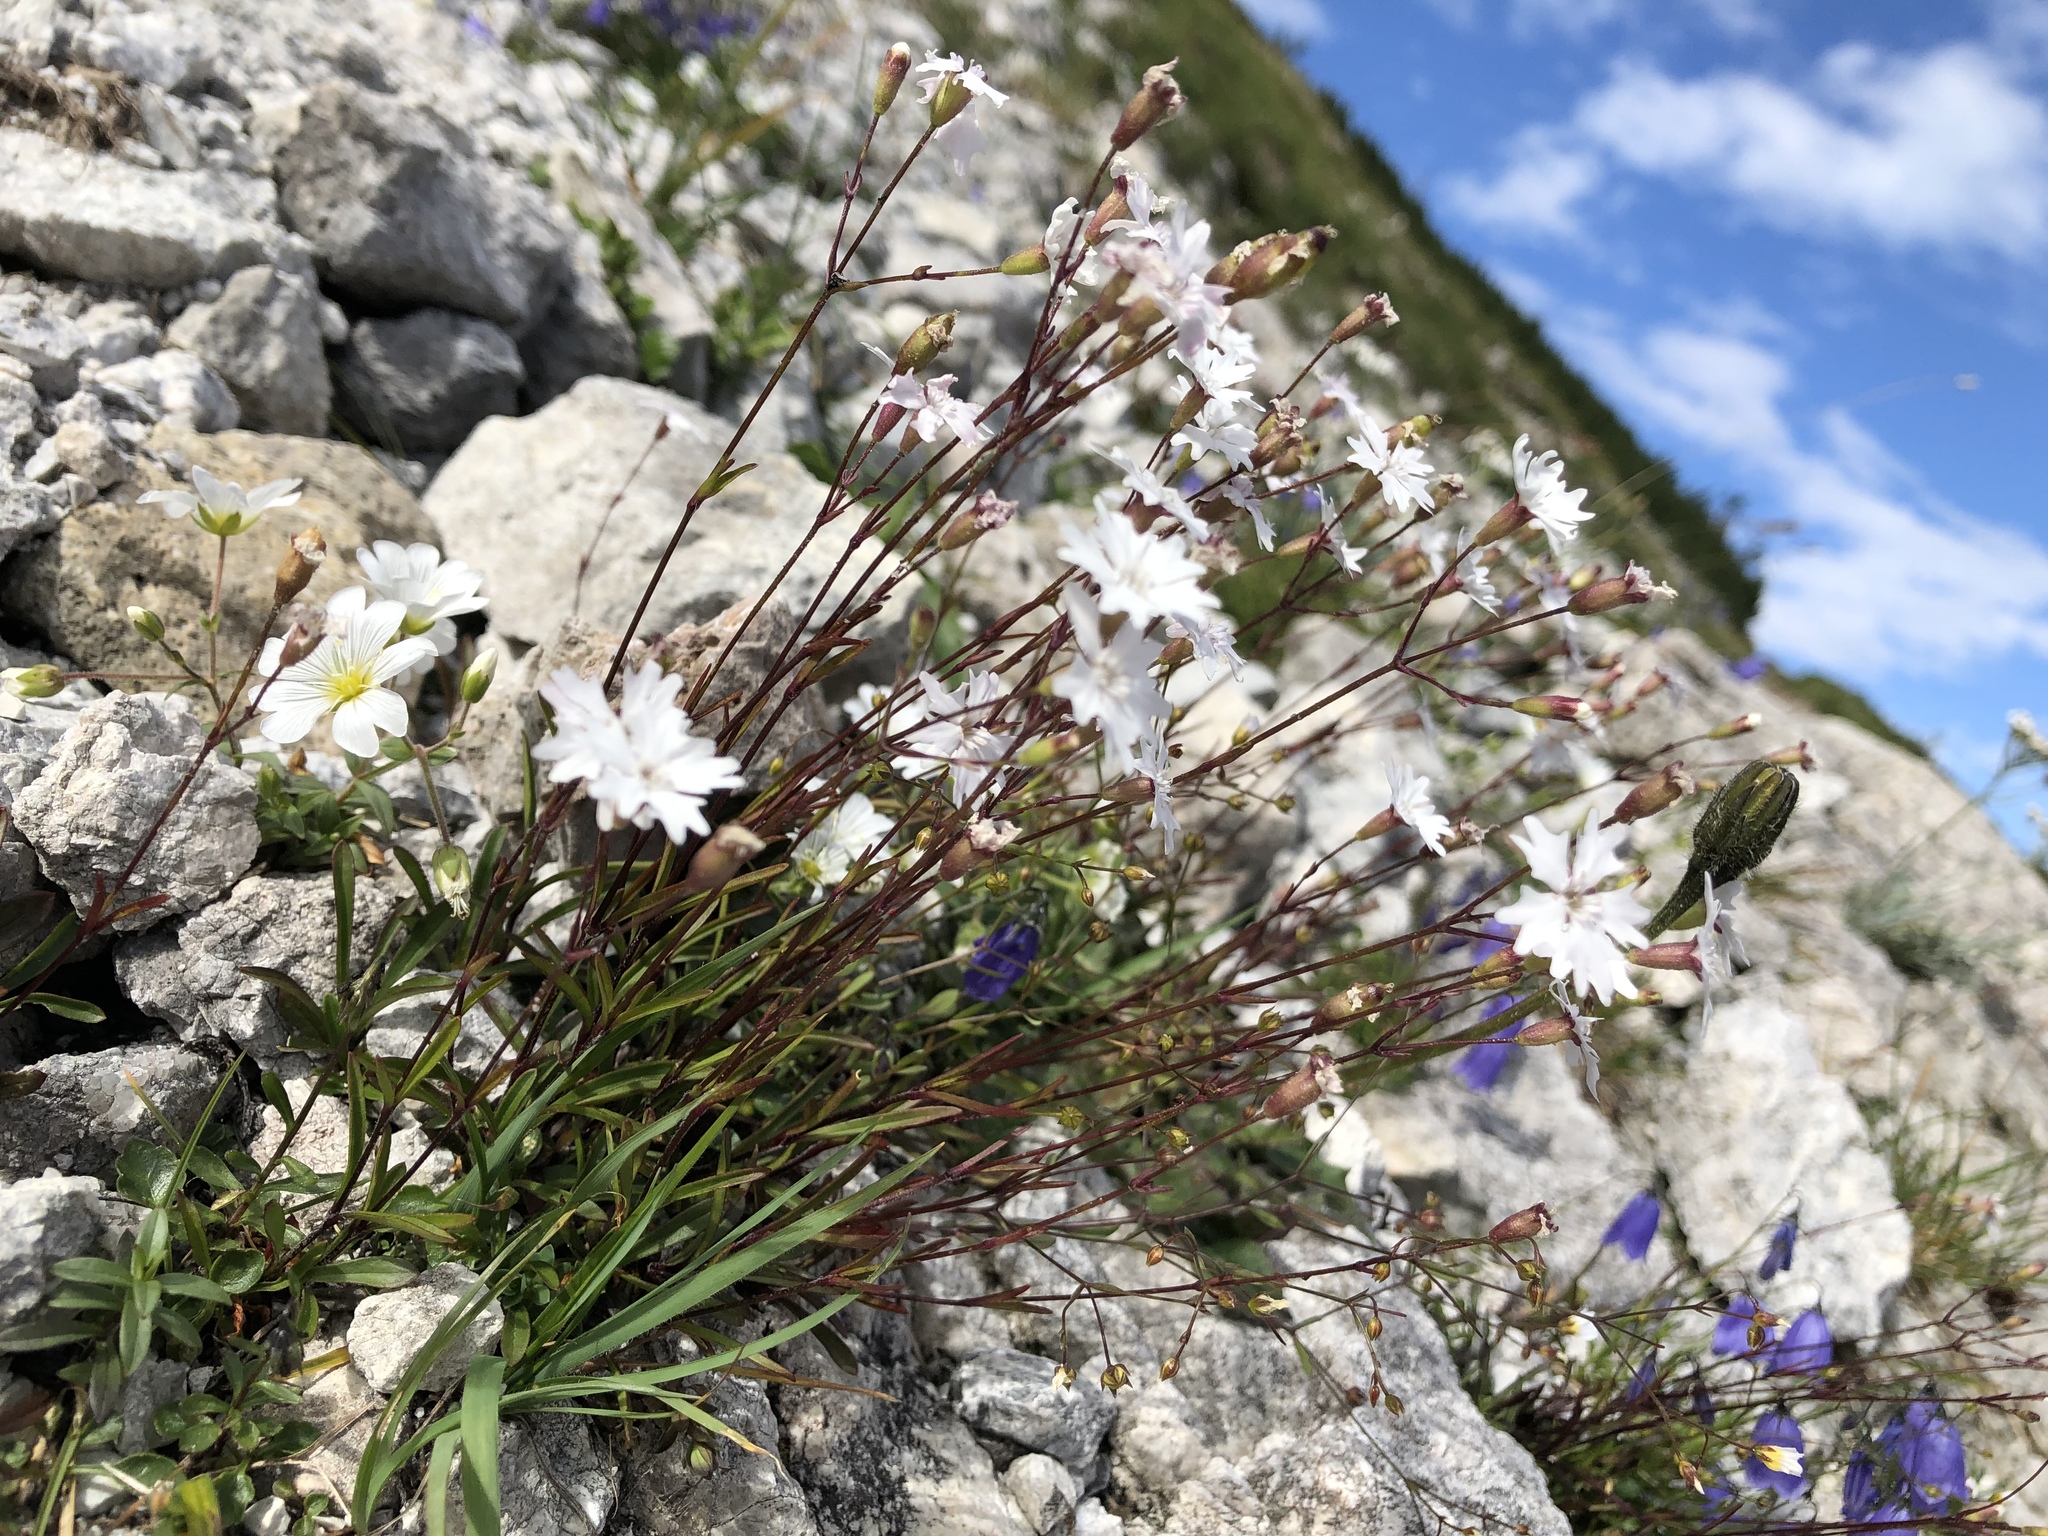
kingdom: Plantae
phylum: Tracheophyta
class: Magnoliopsida
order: Caryophyllales
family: Caryophyllaceae
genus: Heliosperma
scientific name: Heliosperma alpestre
